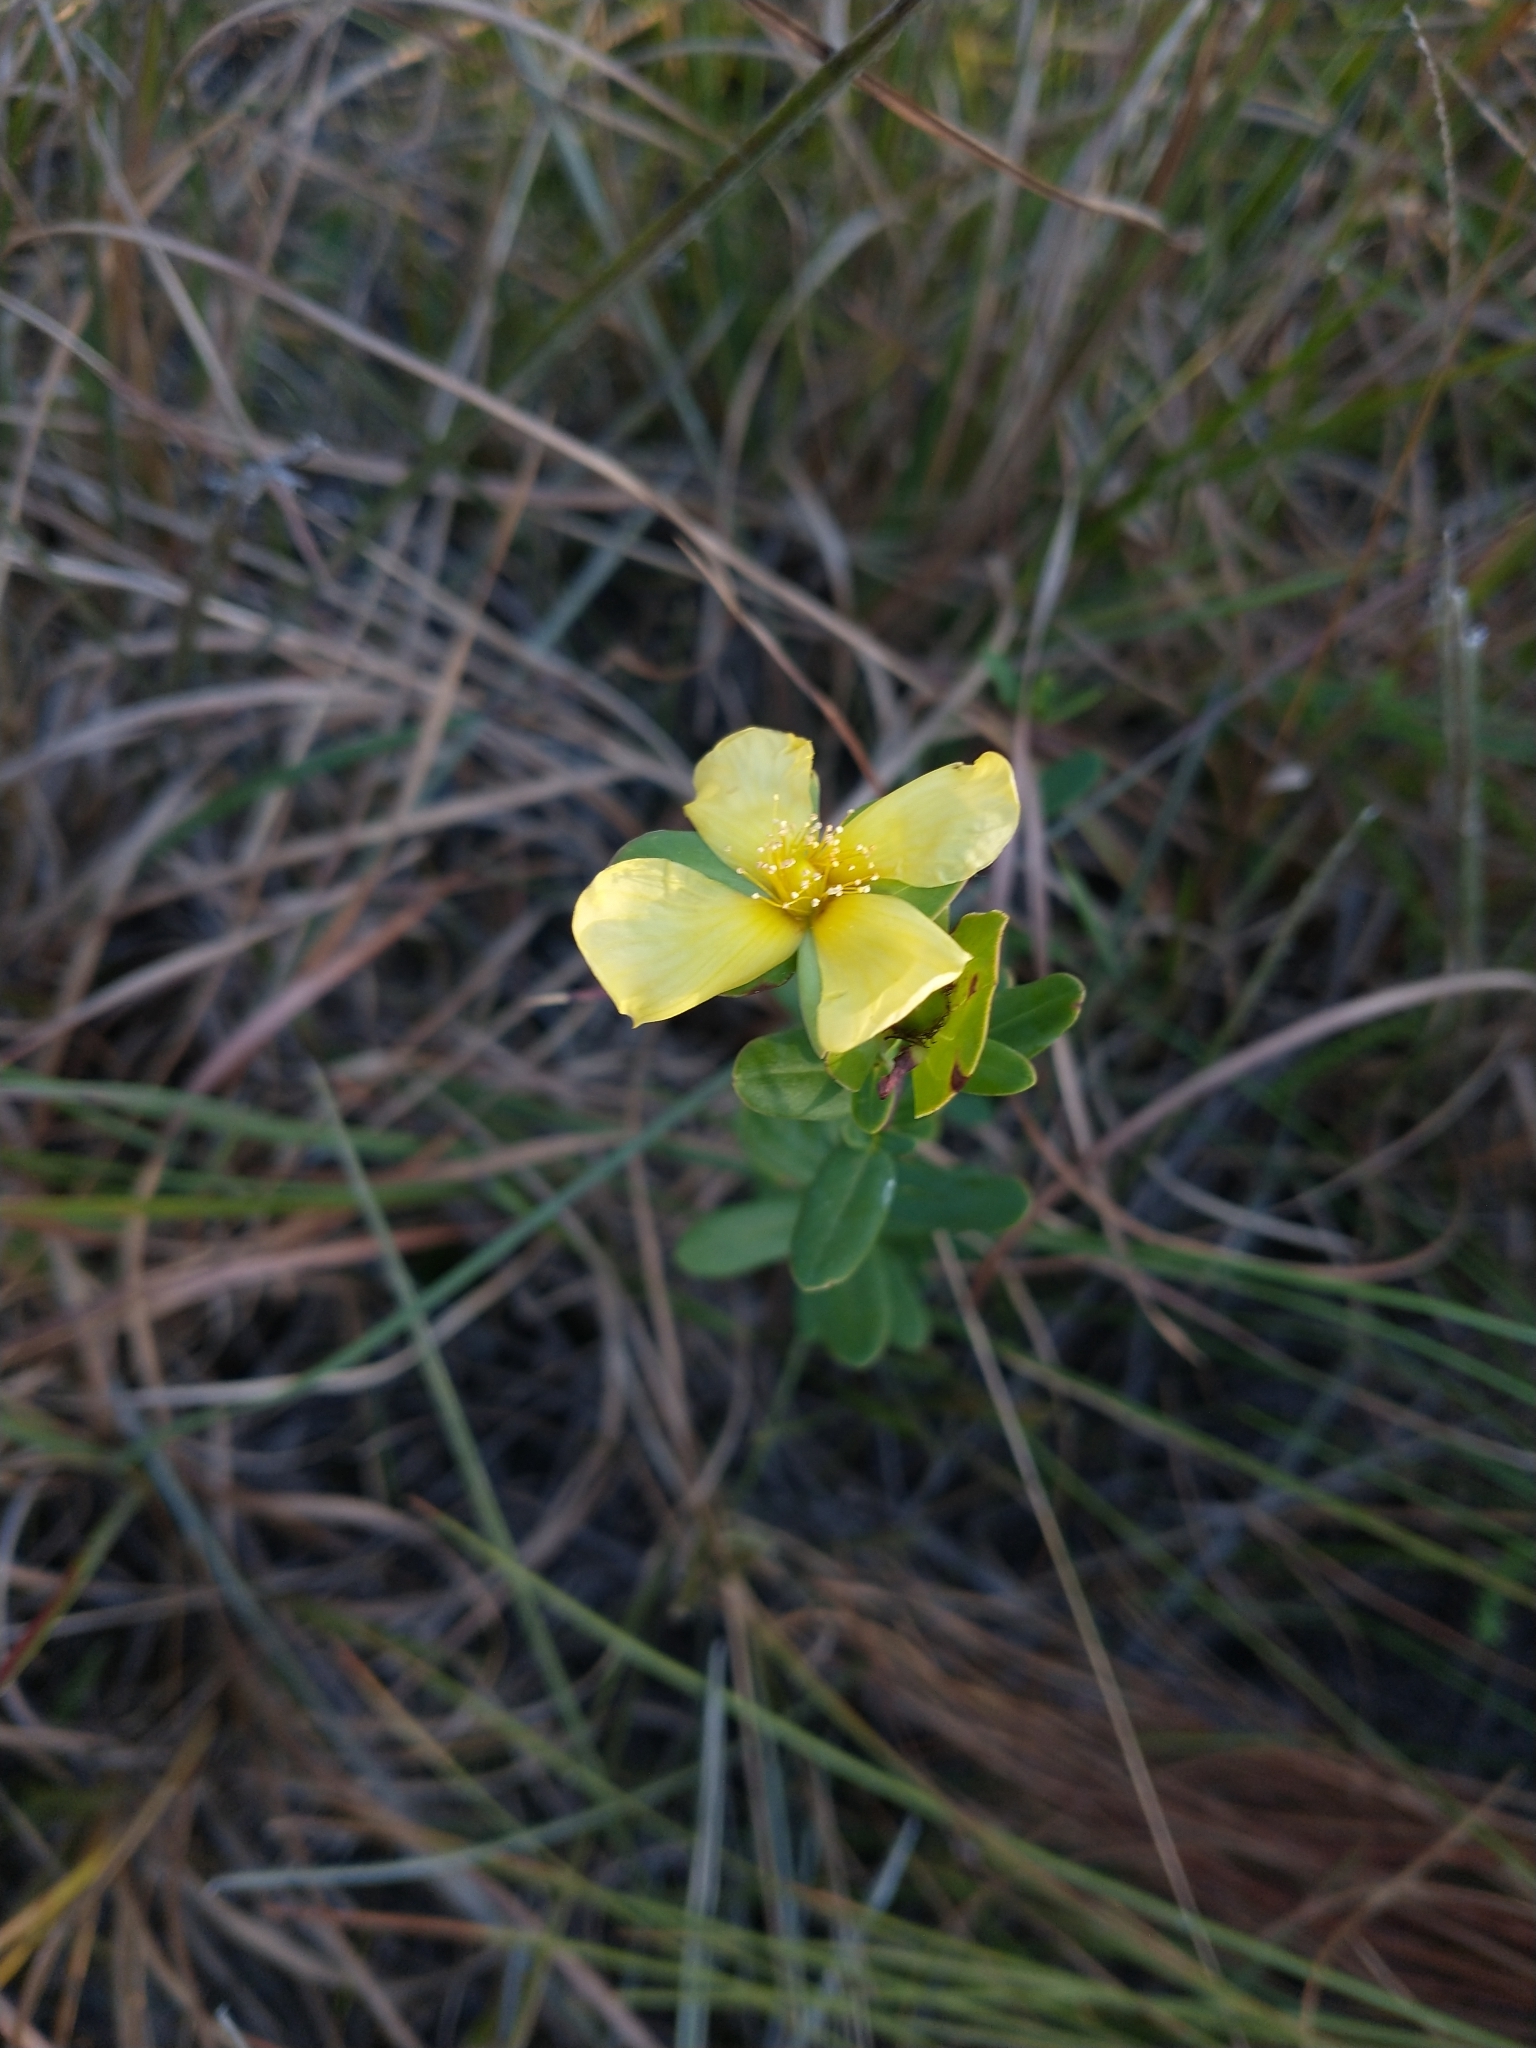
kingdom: Plantae
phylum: Tracheophyta
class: Magnoliopsida
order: Malpighiales
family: Hypericaceae
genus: Hypericum
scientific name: Hypericum crux-andreae
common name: St.-peter's-wort
